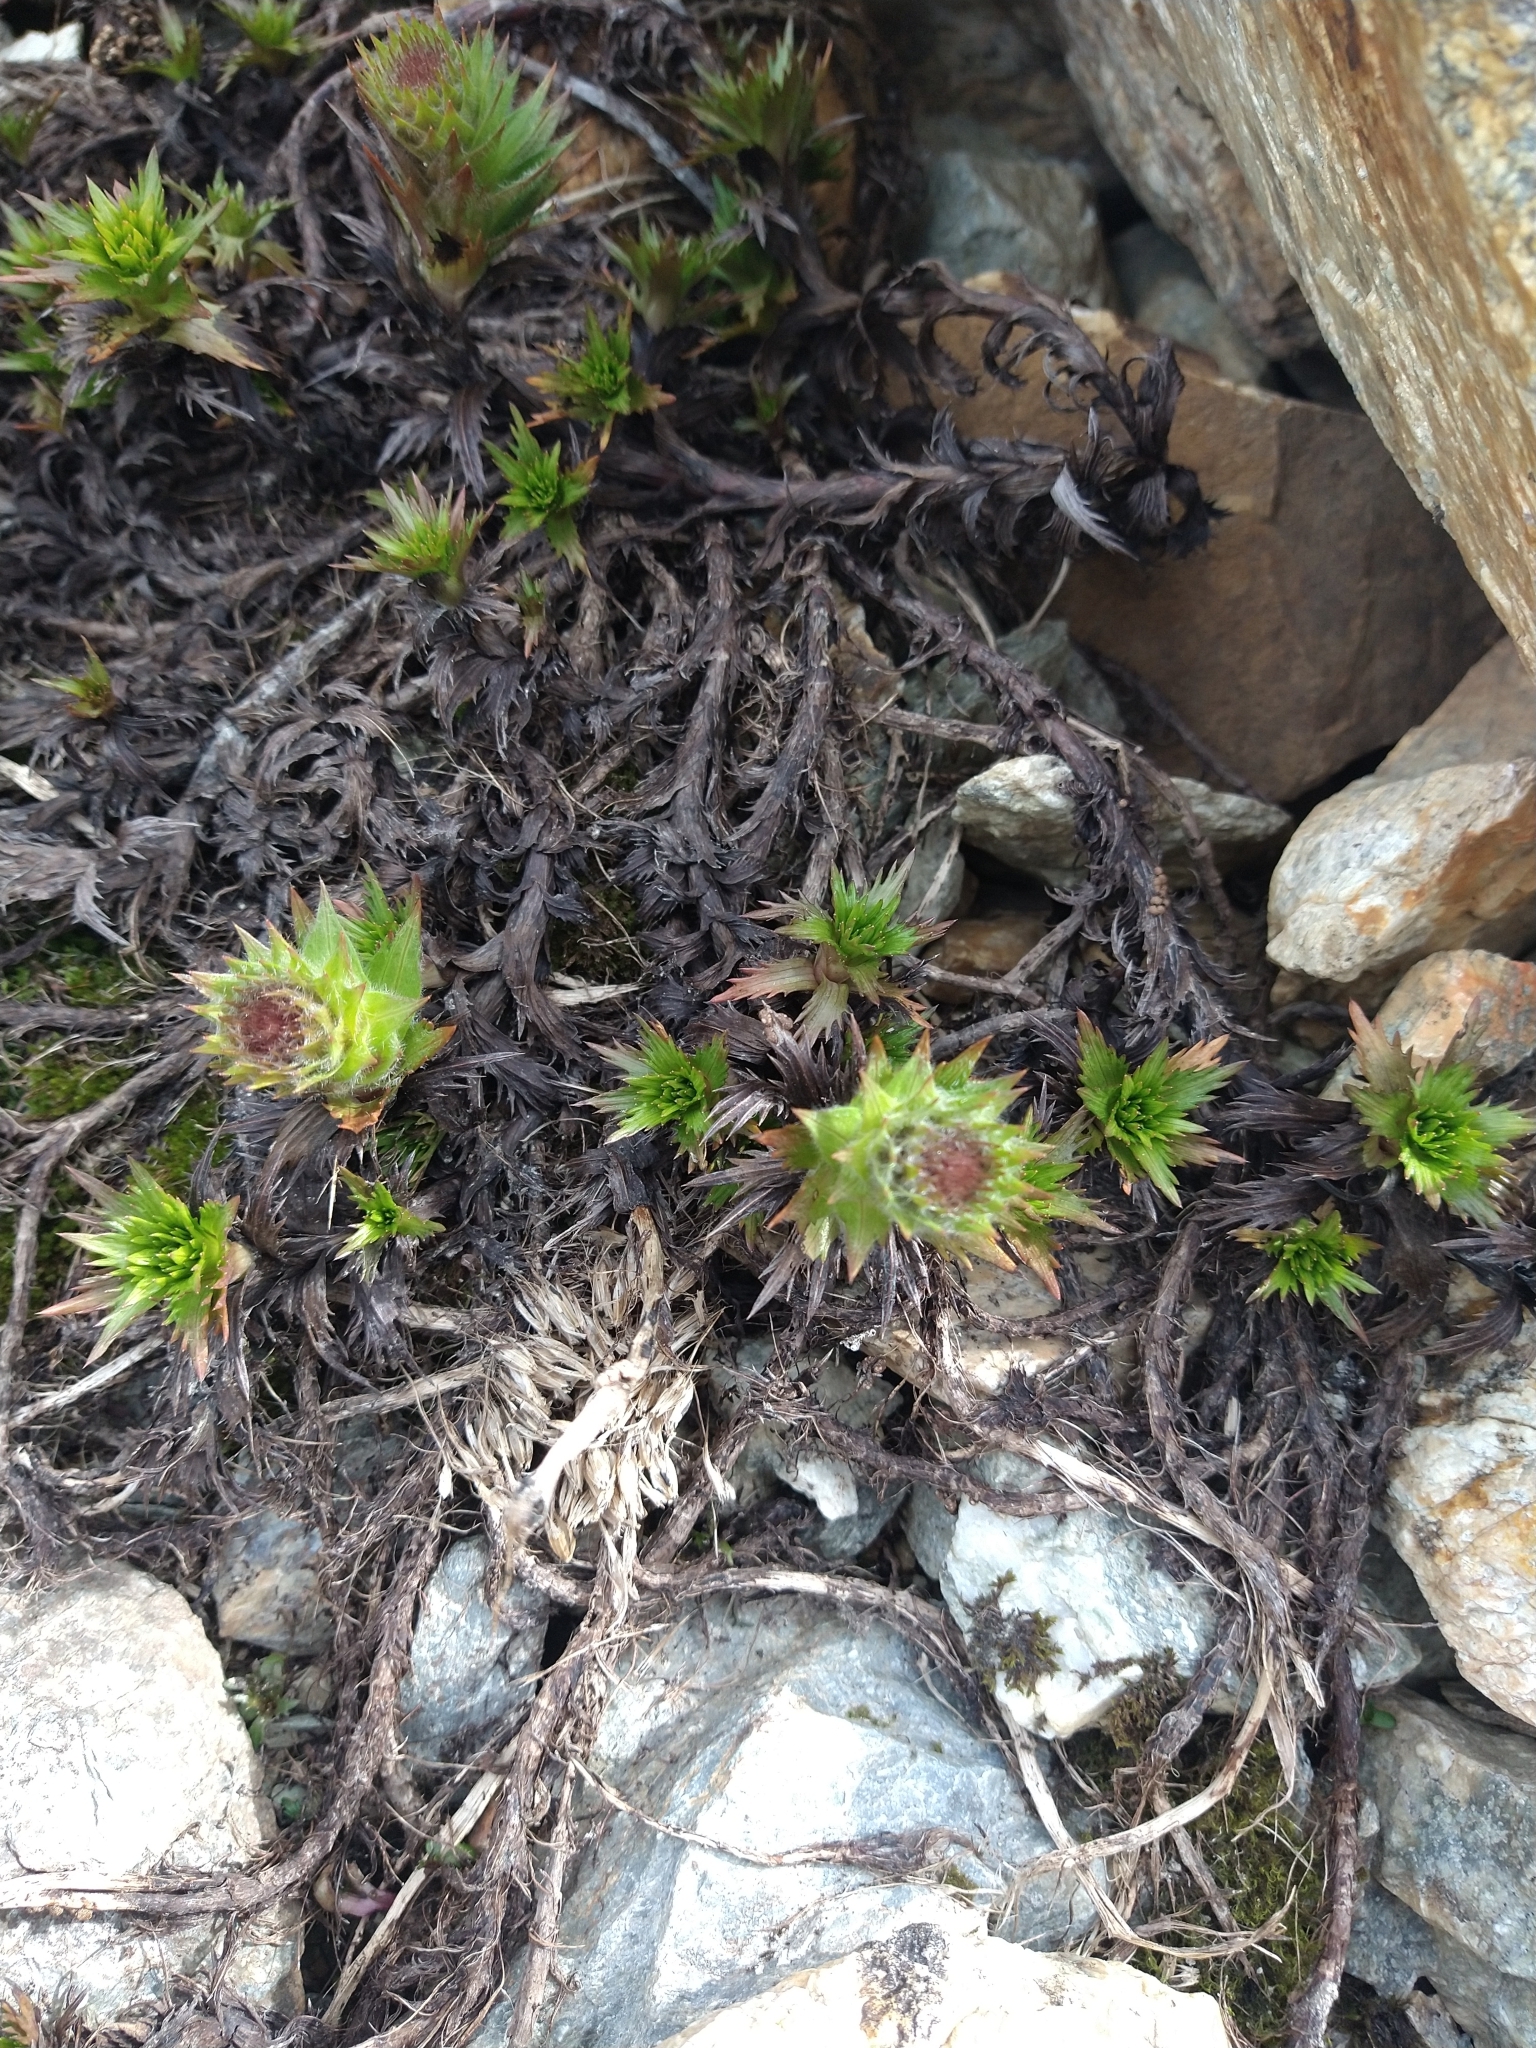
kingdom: Plantae
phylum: Tracheophyta
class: Magnoliopsida
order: Asterales
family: Asteraceae
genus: Nassauvia
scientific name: Nassauvia magellanica
